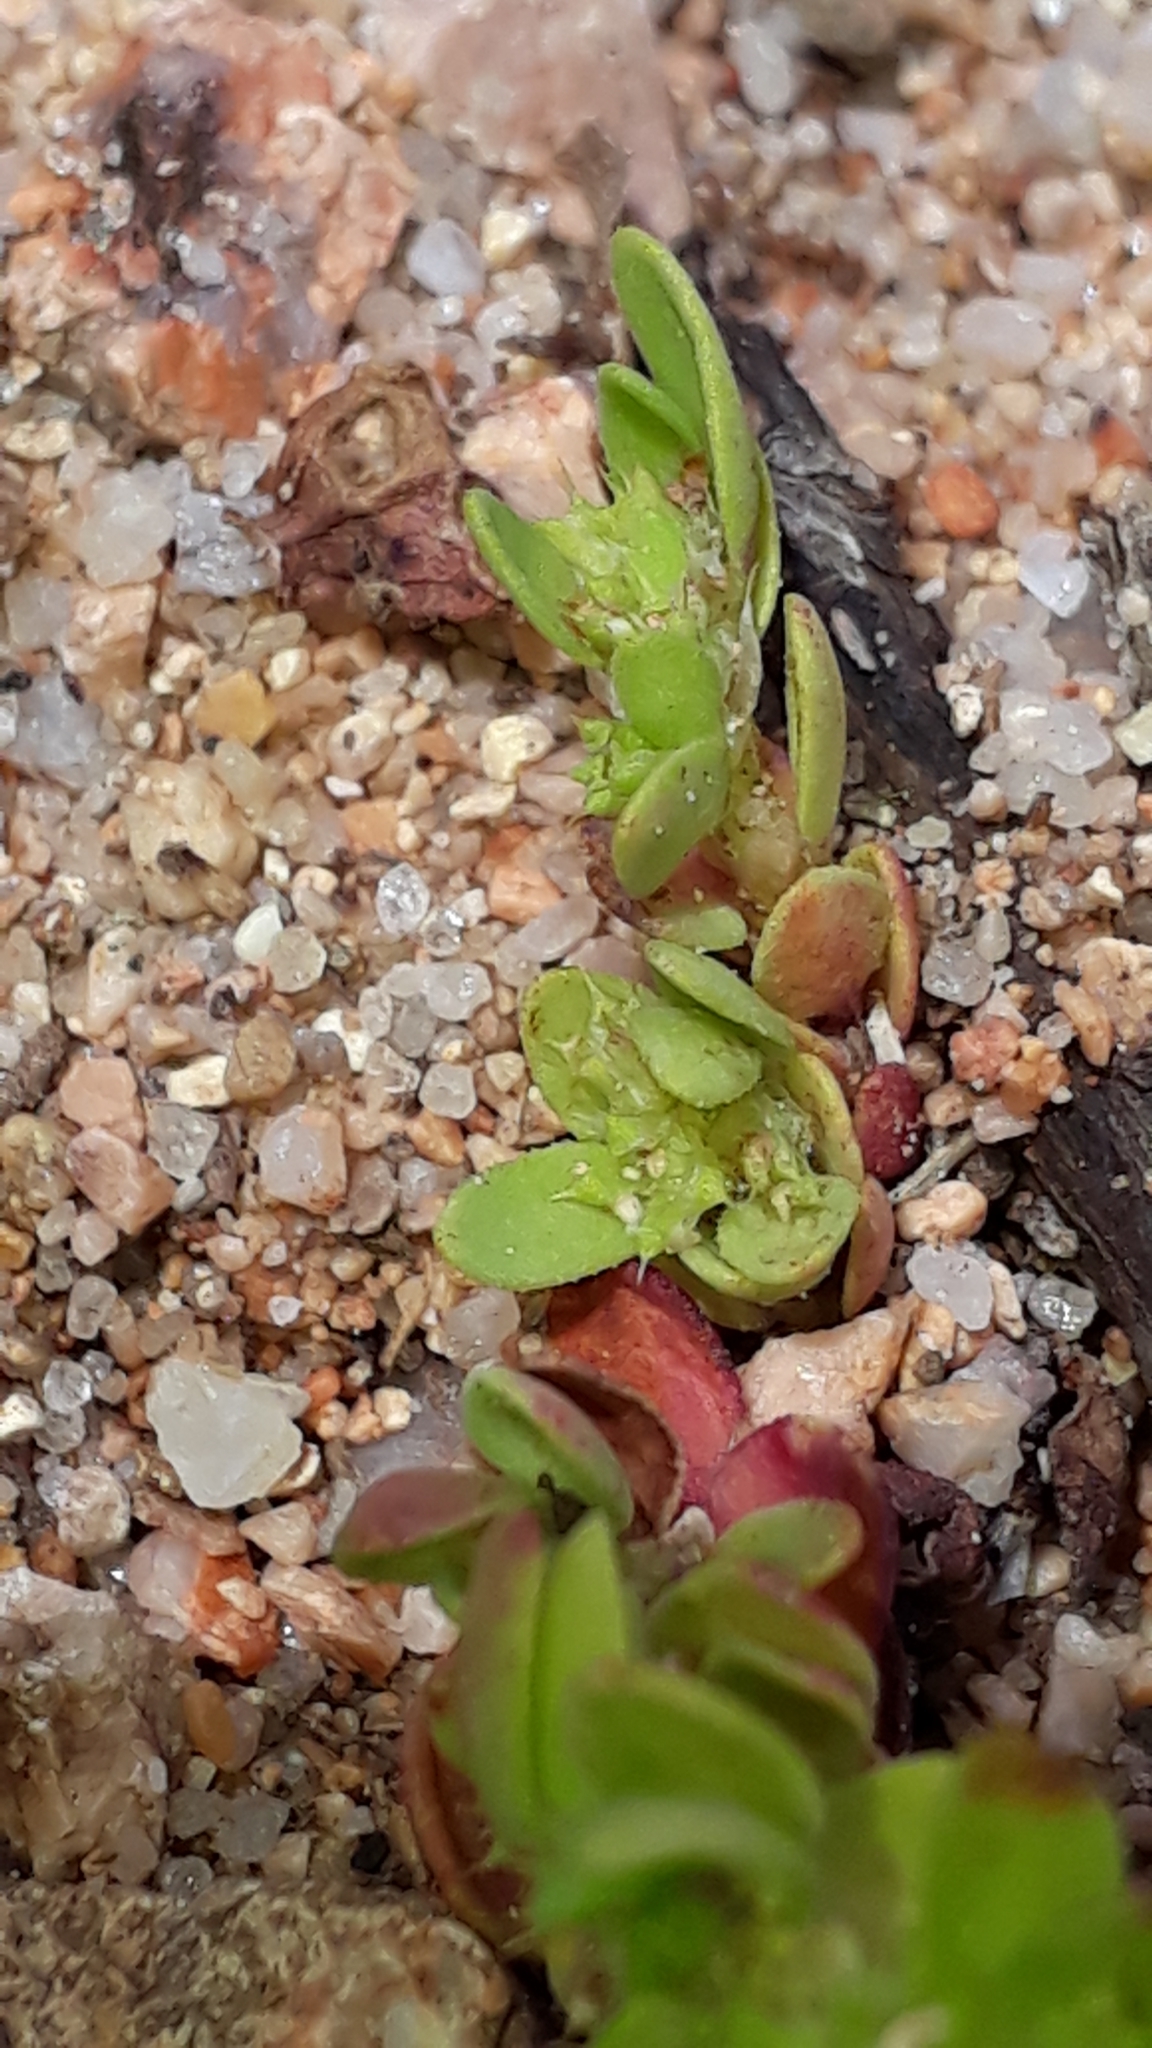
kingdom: Plantae
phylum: Tracheophyta
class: Magnoliopsida
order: Caryophyllales
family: Caryophyllaceae
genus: Paronychia
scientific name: Paronychia echinulata
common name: Eurasian nailwort
